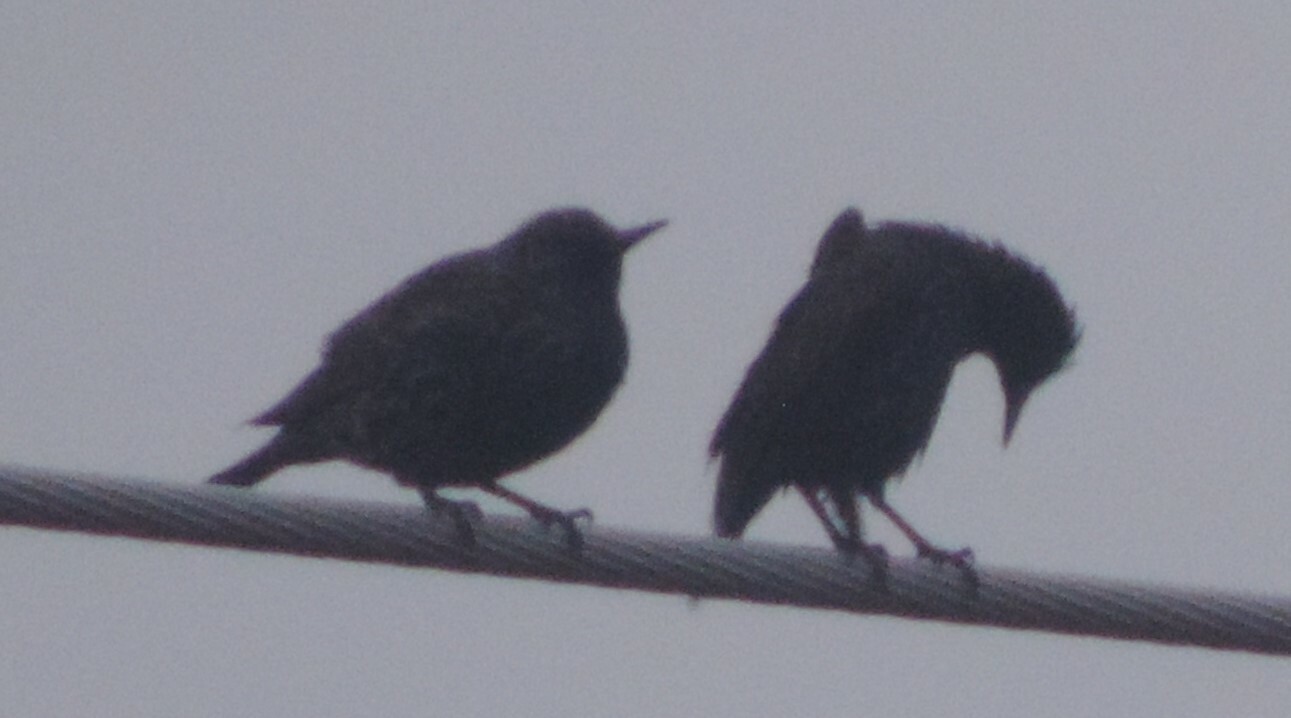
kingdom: Animalia
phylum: Chordata
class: Aves
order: Passeriformes
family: Sturnidae
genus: Sturnus
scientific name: Sturnus vulgaris
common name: Common starling
